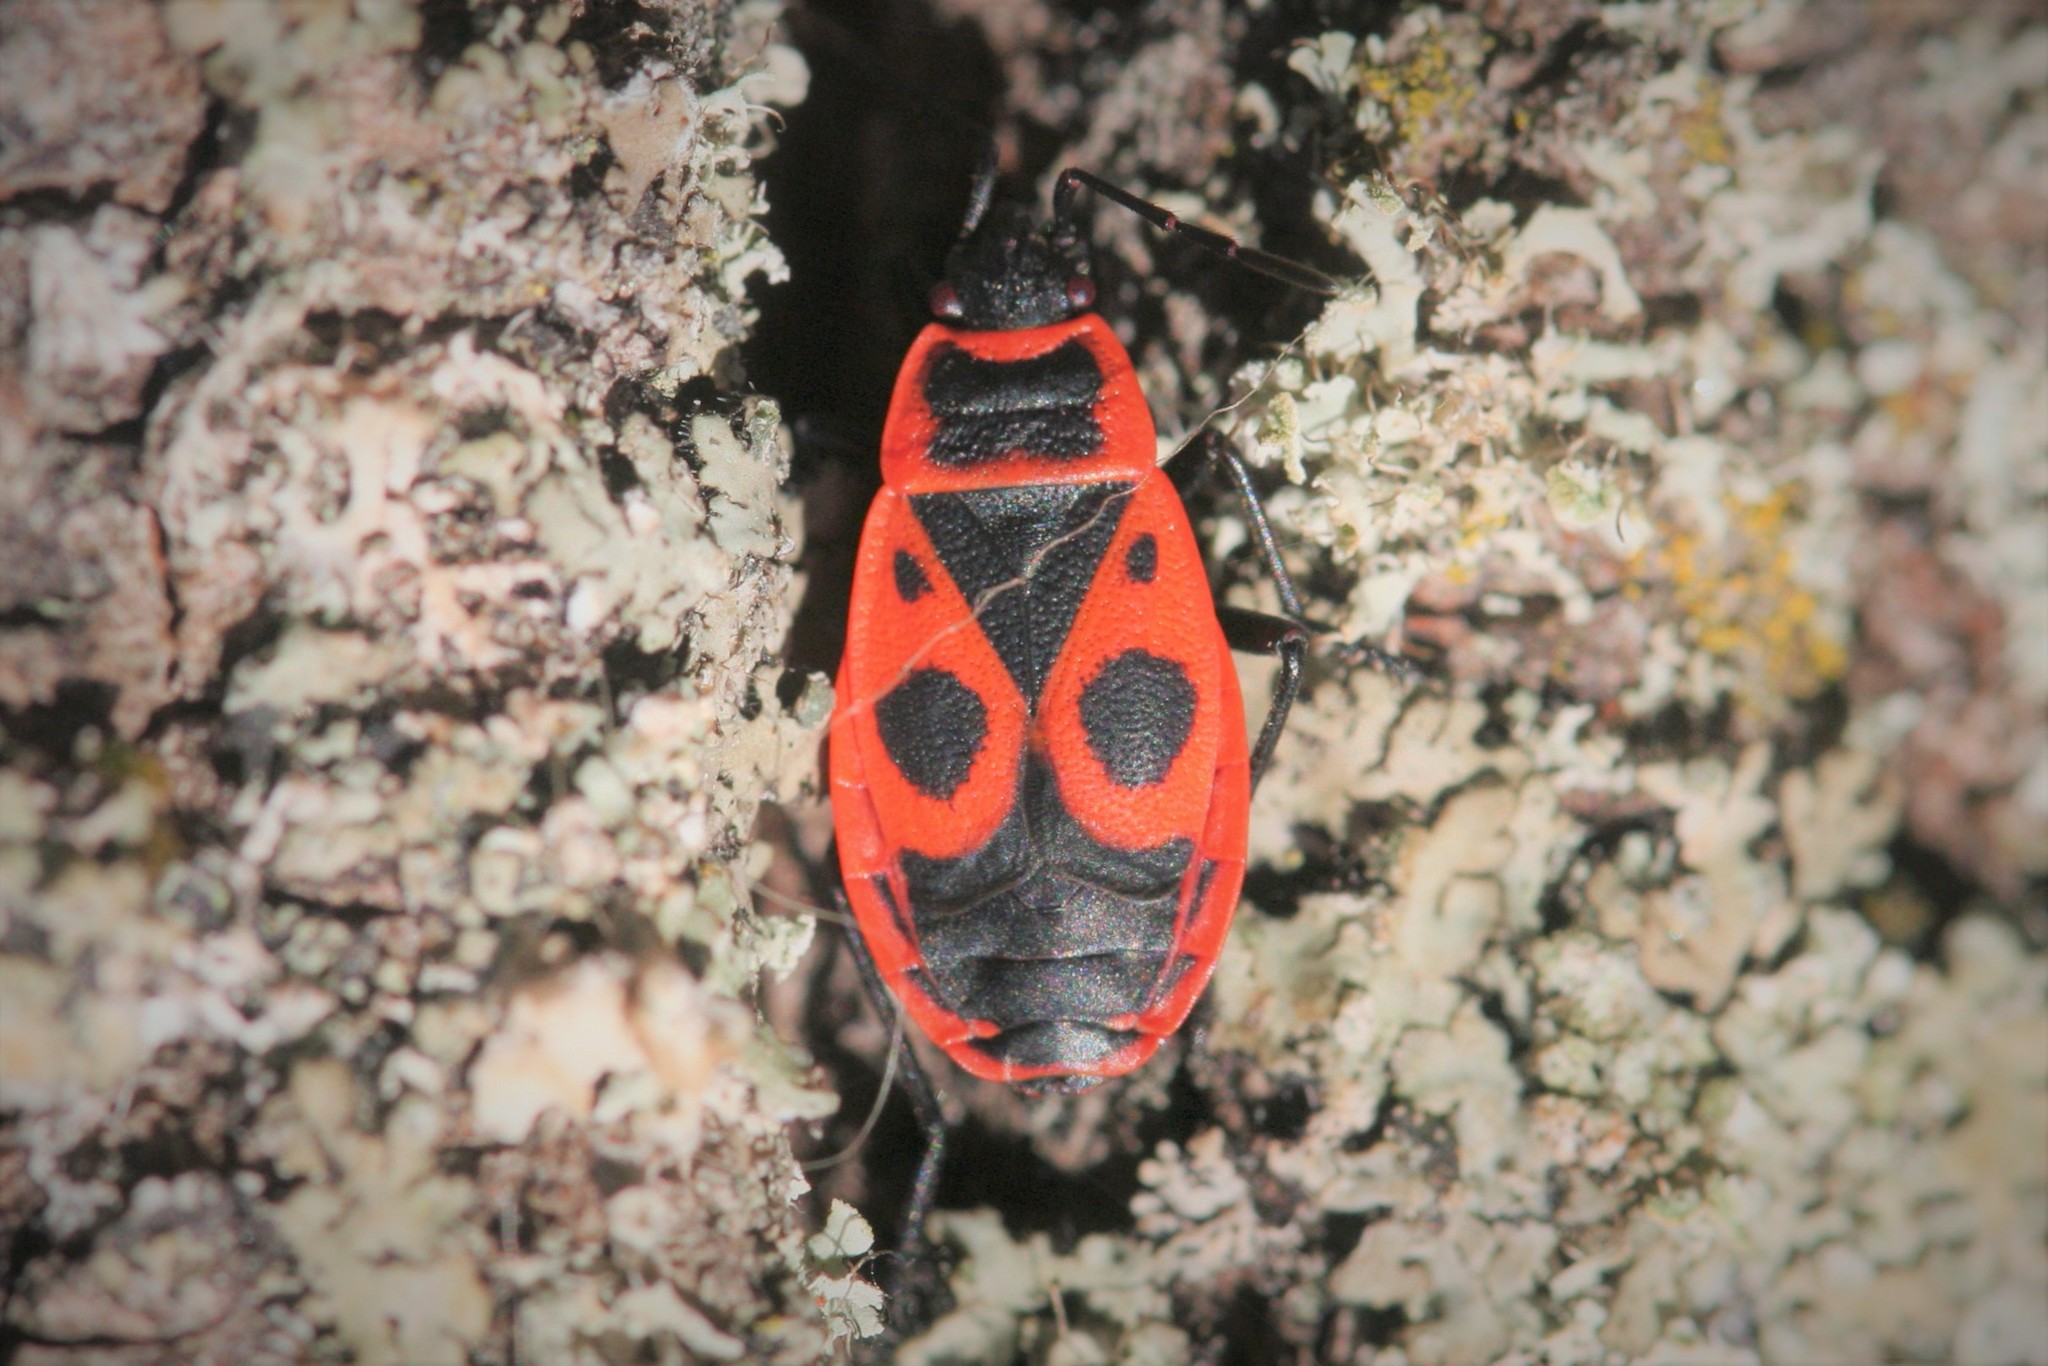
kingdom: Animalia
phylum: Arthropoda
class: Insecta
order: Hemiptera
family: Pyrrhocoridae
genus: Pyrrhocoris
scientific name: Pyrrhocoris apterus
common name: Firebug
